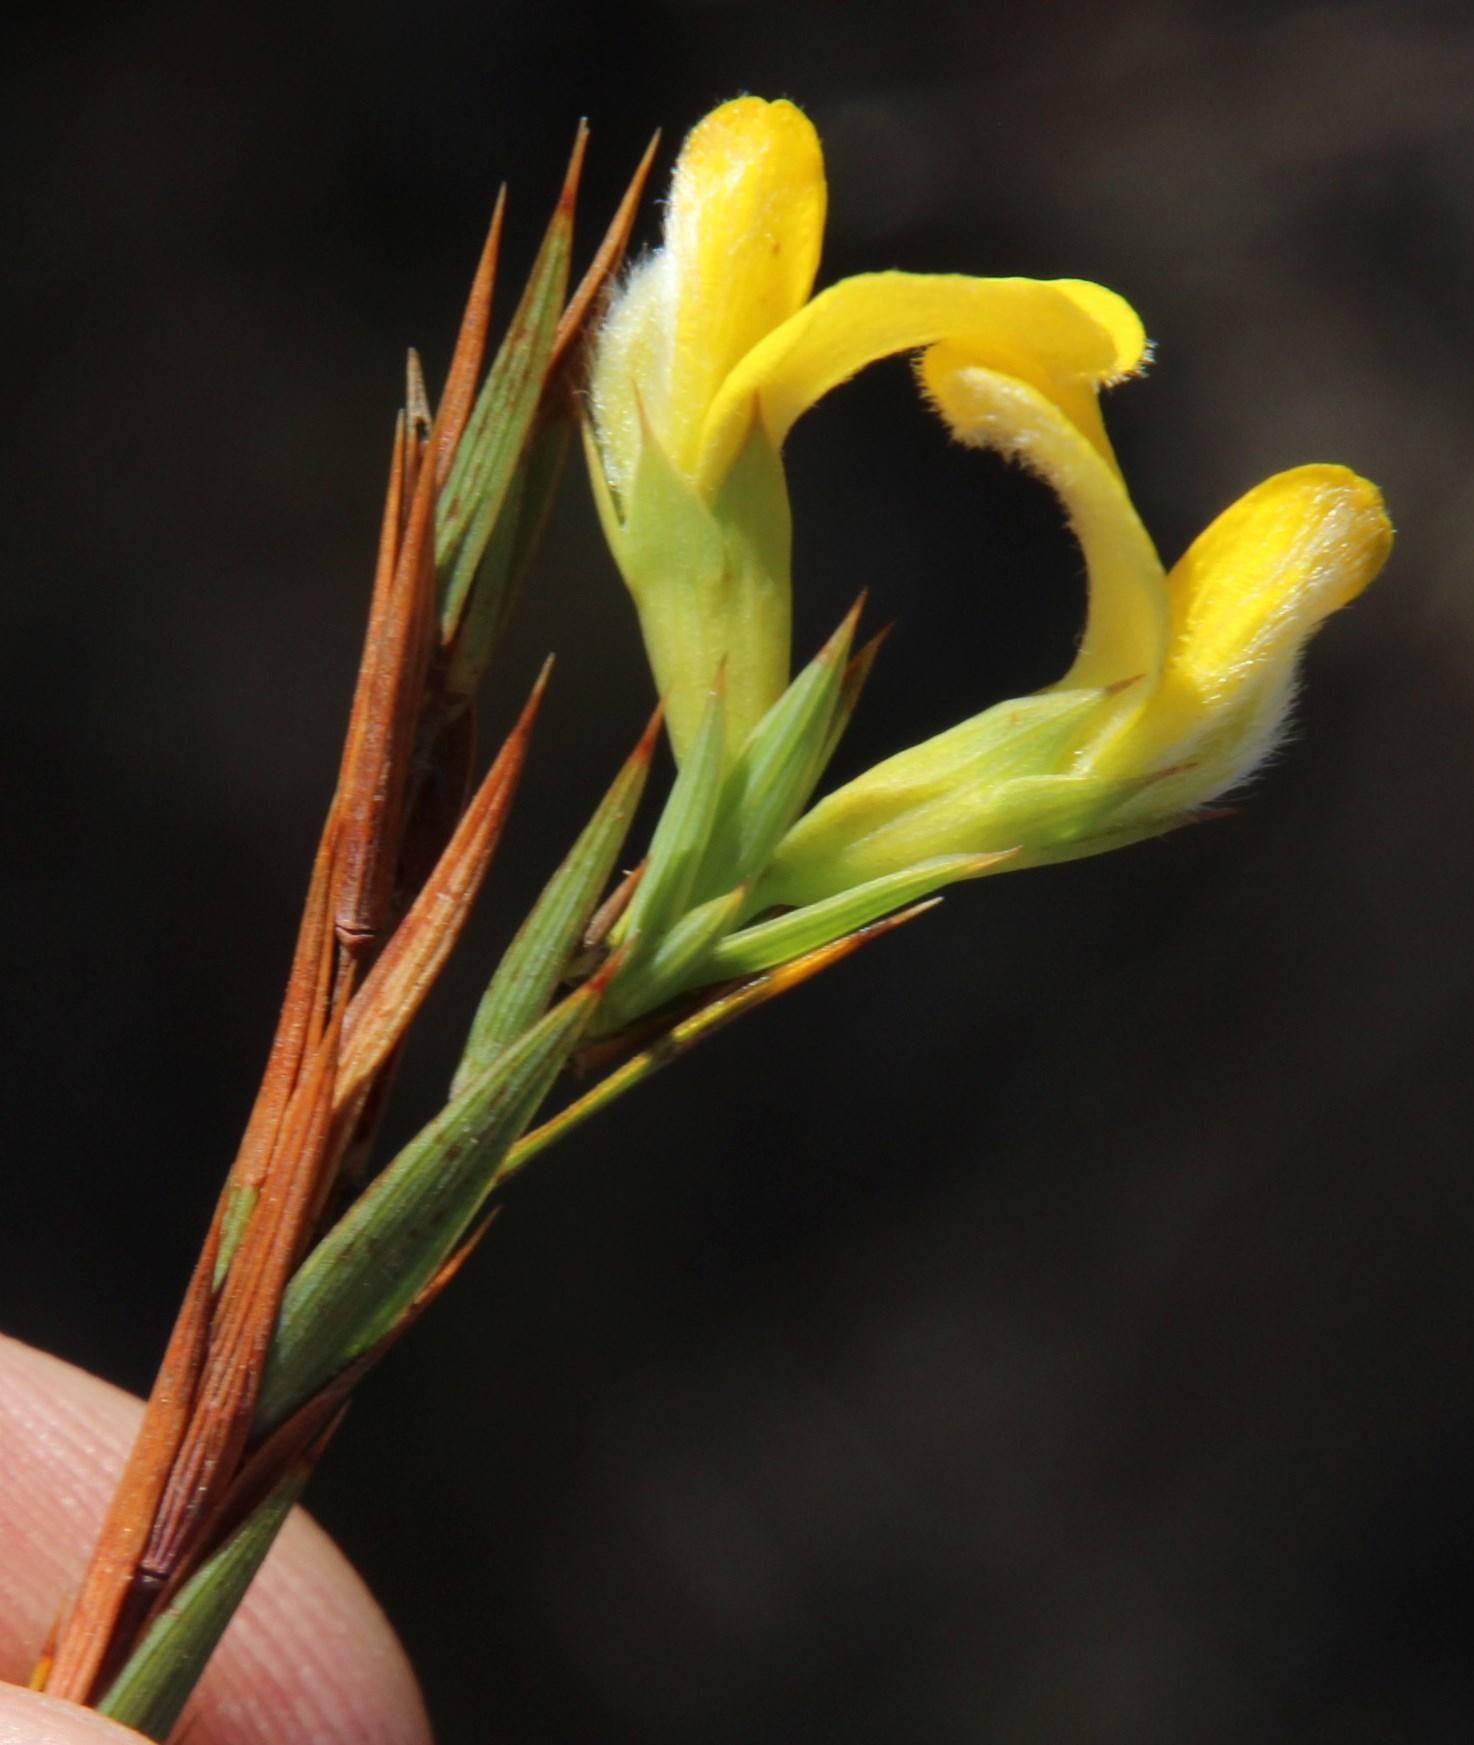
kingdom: Plantae
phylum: Tracheophyta
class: Magnoliopsida
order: Fabales
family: Fabaceae
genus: Aspalathus
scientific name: Aspalathus angustifolia
